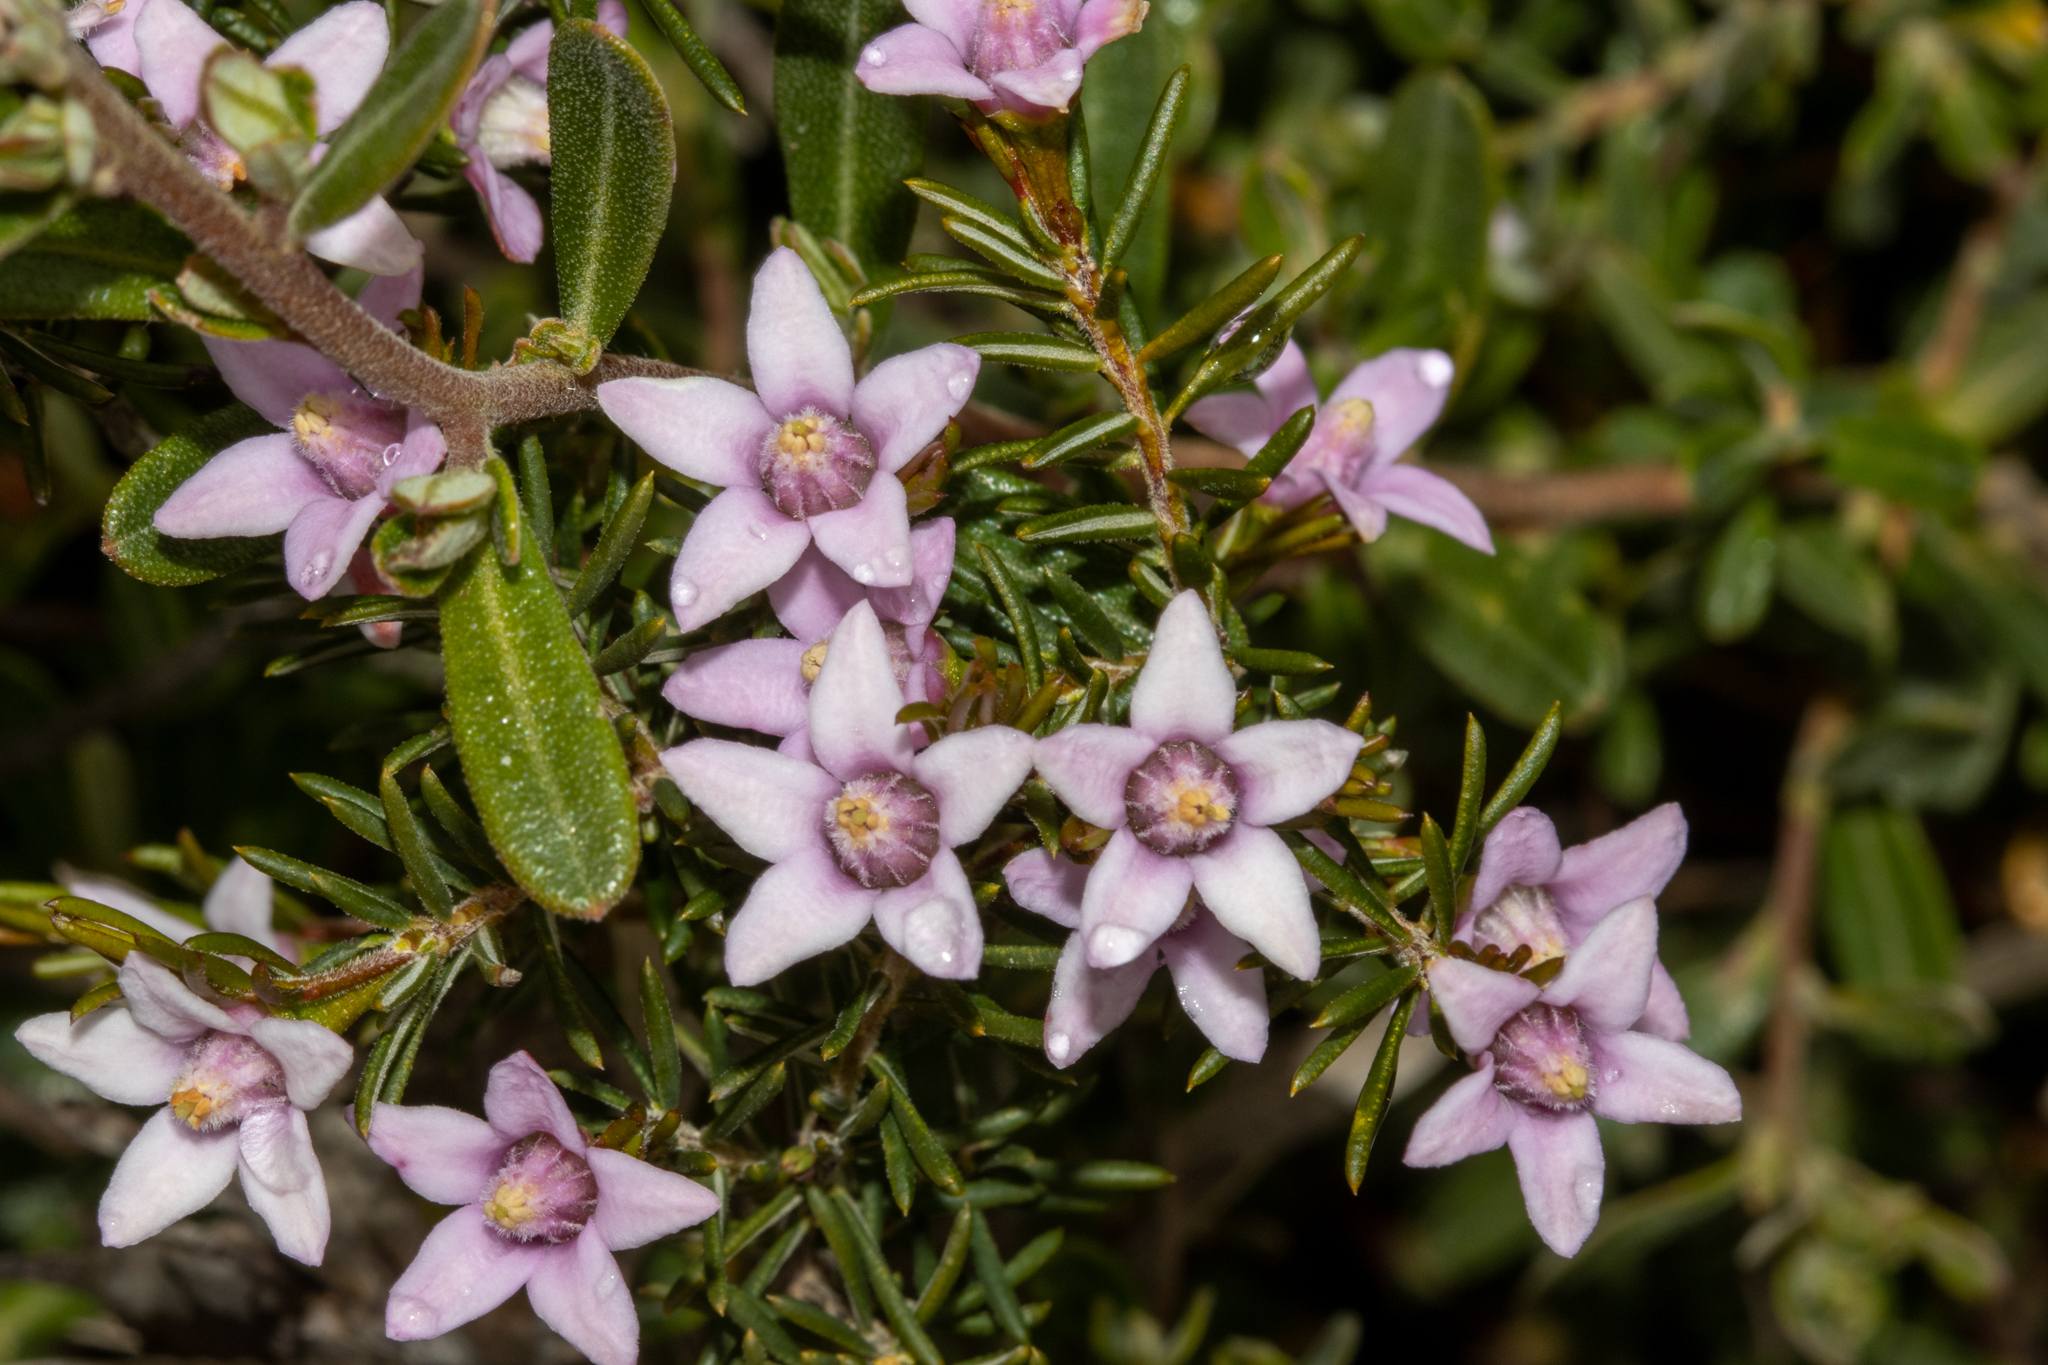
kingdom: Plantae
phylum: Tracheophyta
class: Magnoliopsida
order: Sapindales
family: Rutaceae
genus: Philotheca
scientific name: Philotheca pinoides
